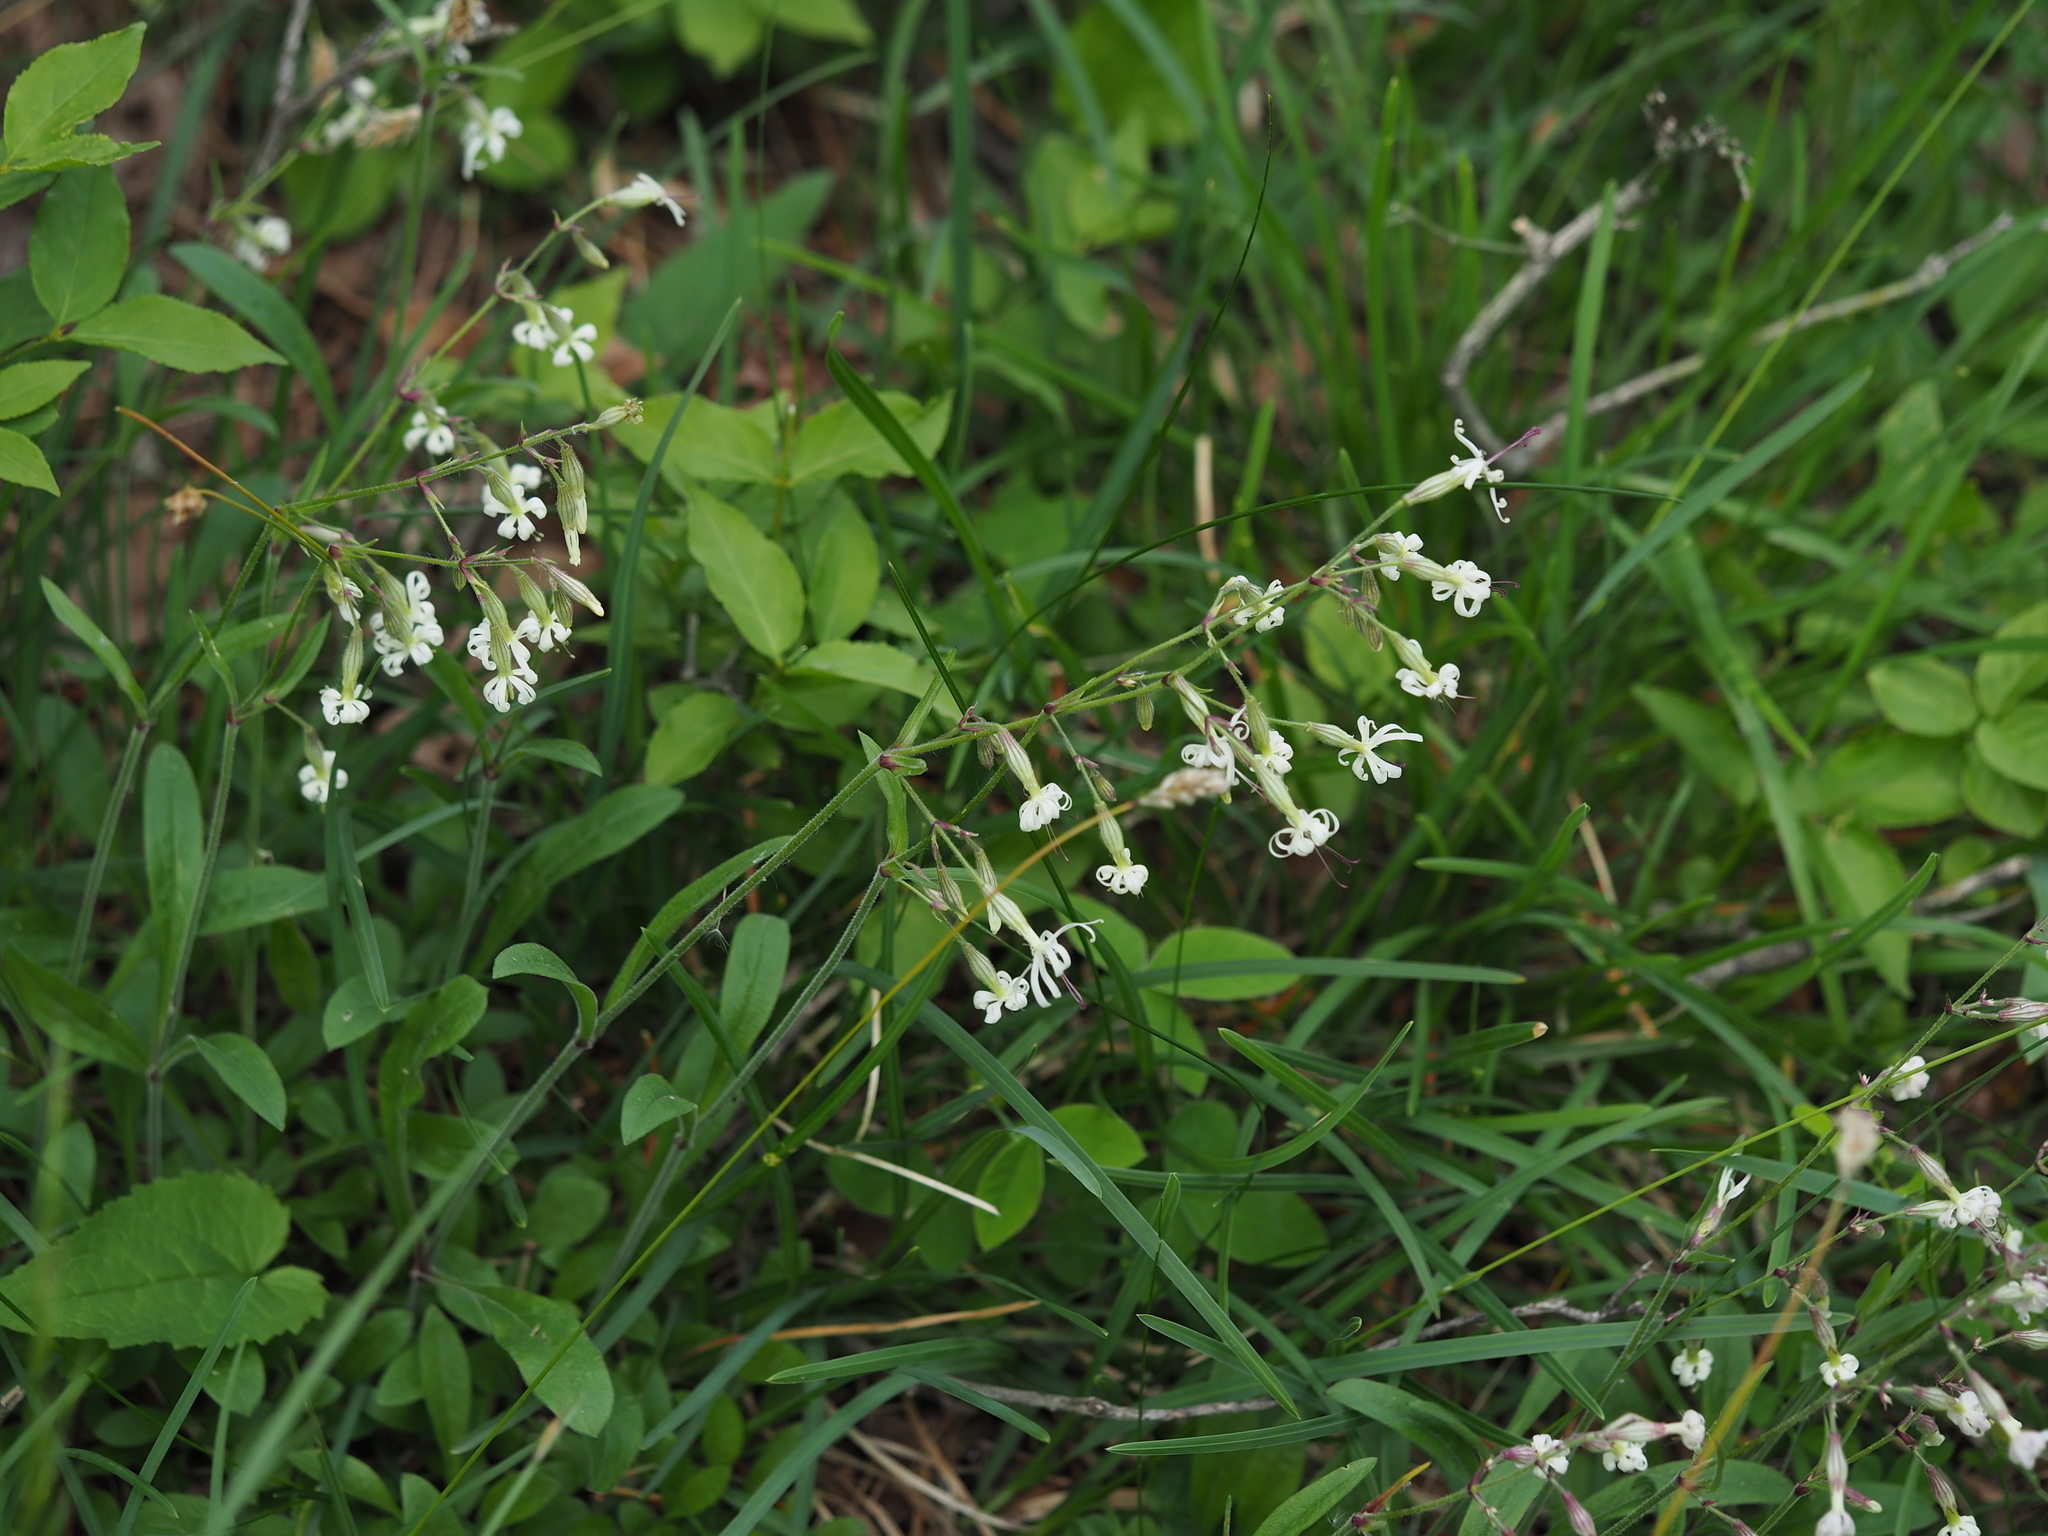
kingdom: Plantae
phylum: Tracheophyta
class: Magnoliopsida
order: Caryophyllales
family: Caryophyllaceae
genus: Silene
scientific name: Silene nutans
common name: Nottingham catchfly
